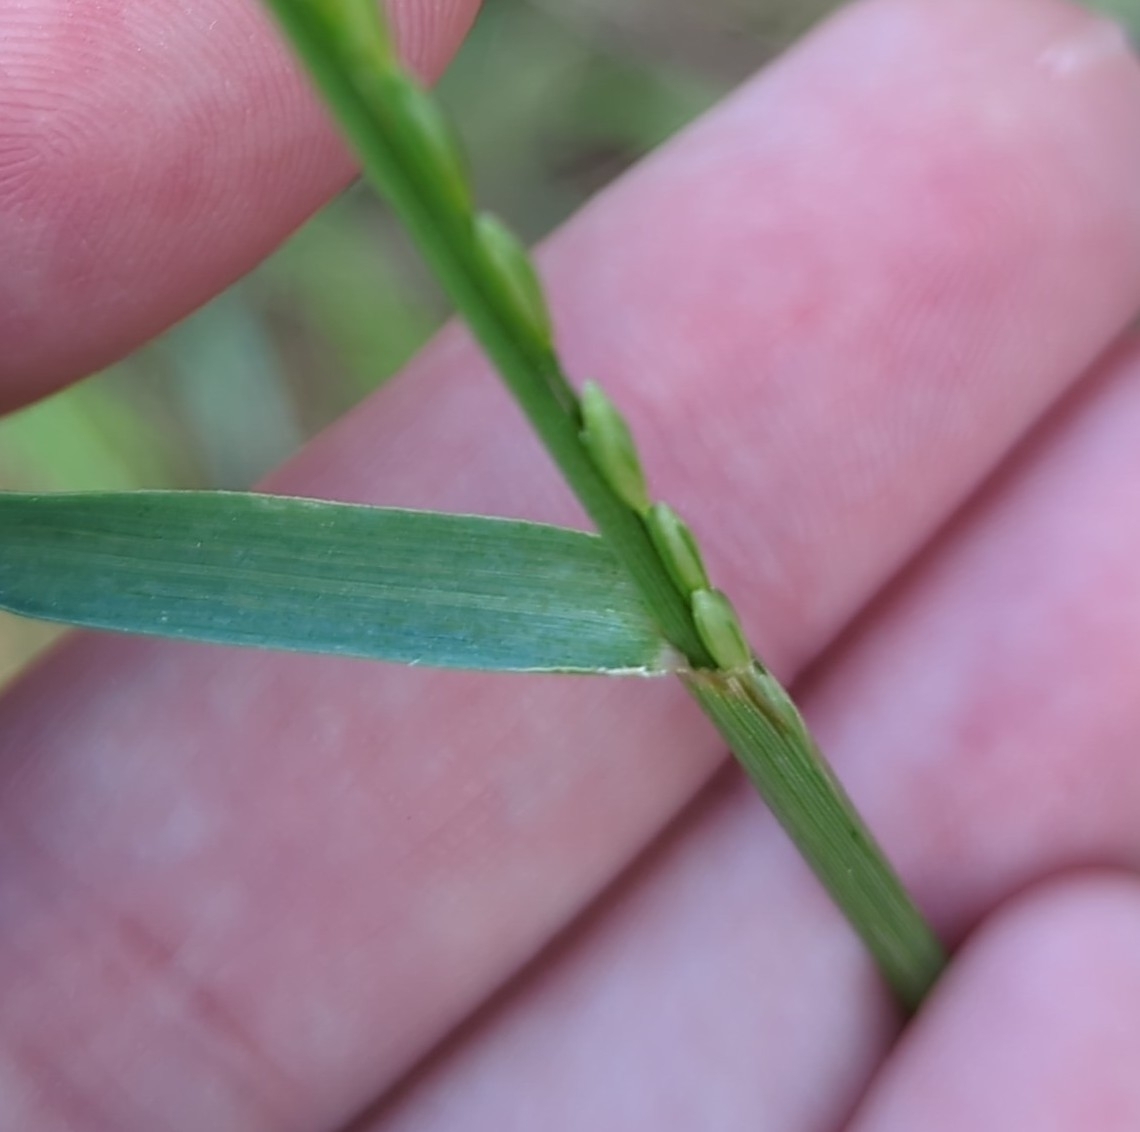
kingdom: Plantae
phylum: Tracheophyta
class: Liliopsida
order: Poales
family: Poaceae
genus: Tridens
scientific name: Tridens albescens
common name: White tridens
